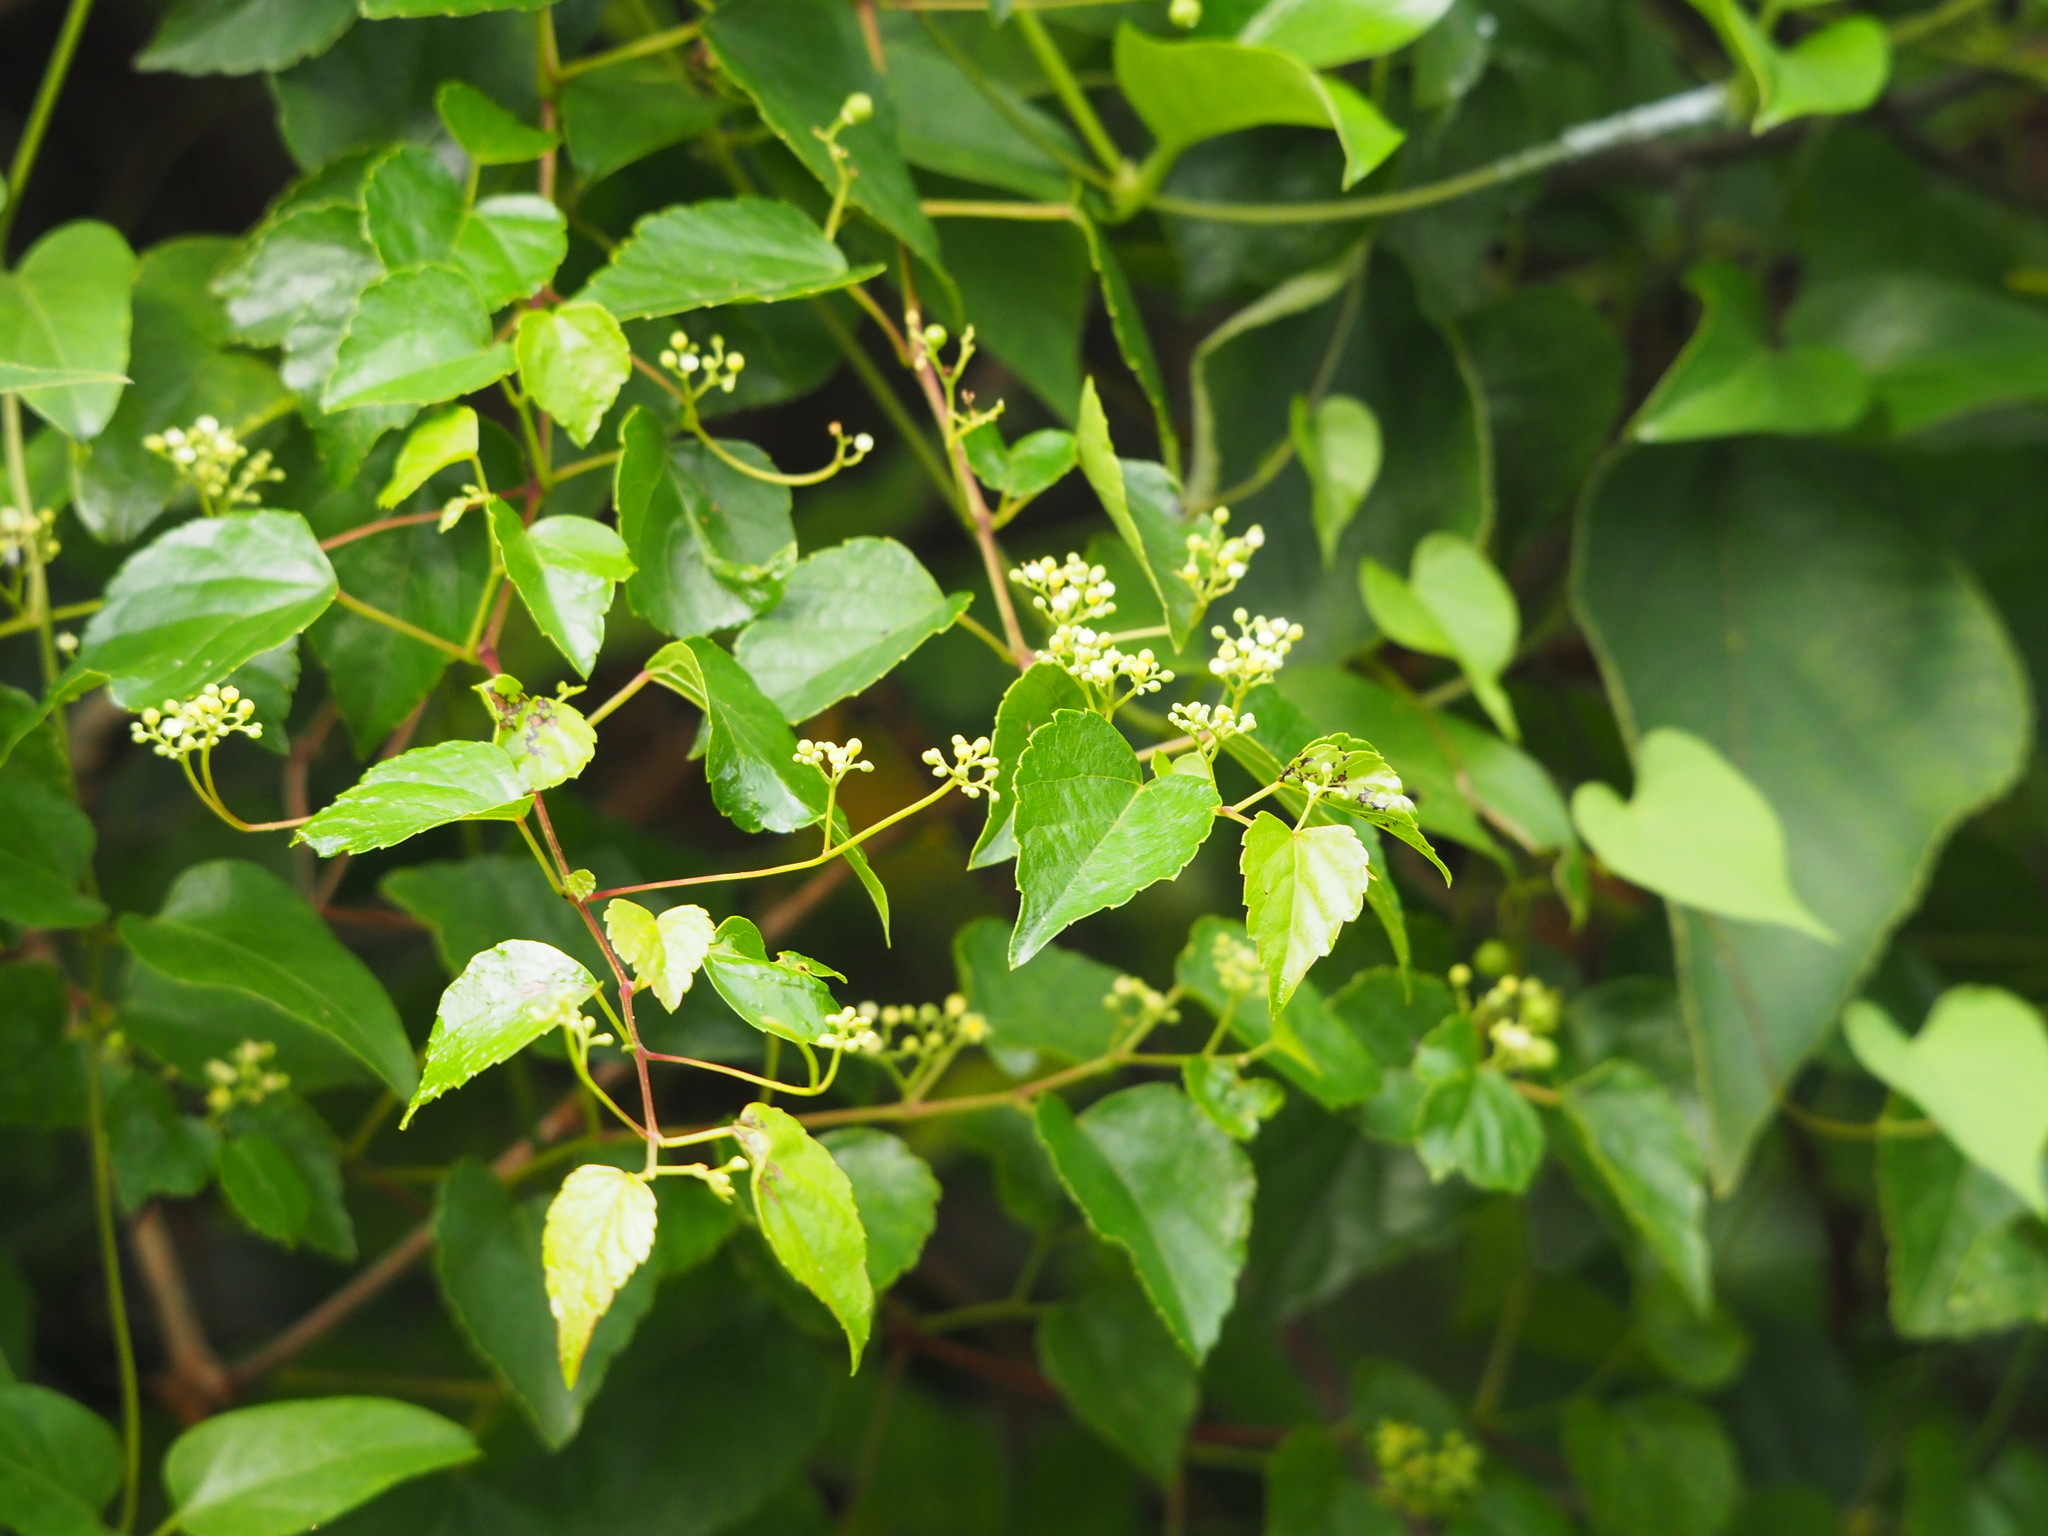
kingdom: Plantae
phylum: Tracheophyta
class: Magnoliopsida
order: Vitales
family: Vitaceae
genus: Ampelopsis
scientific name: Ampelopsis glandulosa
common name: Amur peppervine
